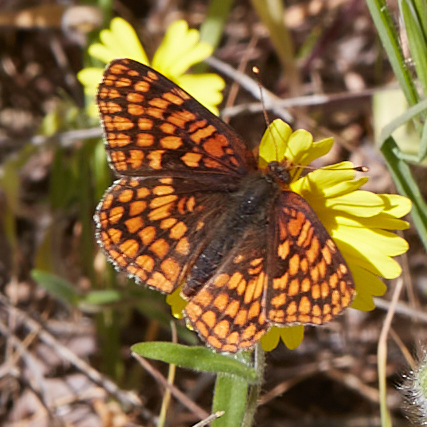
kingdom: Animalia
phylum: Arthropoda
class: Insecta
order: Lepidoptera
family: Nymphalidae
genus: Chlosyne
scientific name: Chlosyne palla
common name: Northern checkerspot
